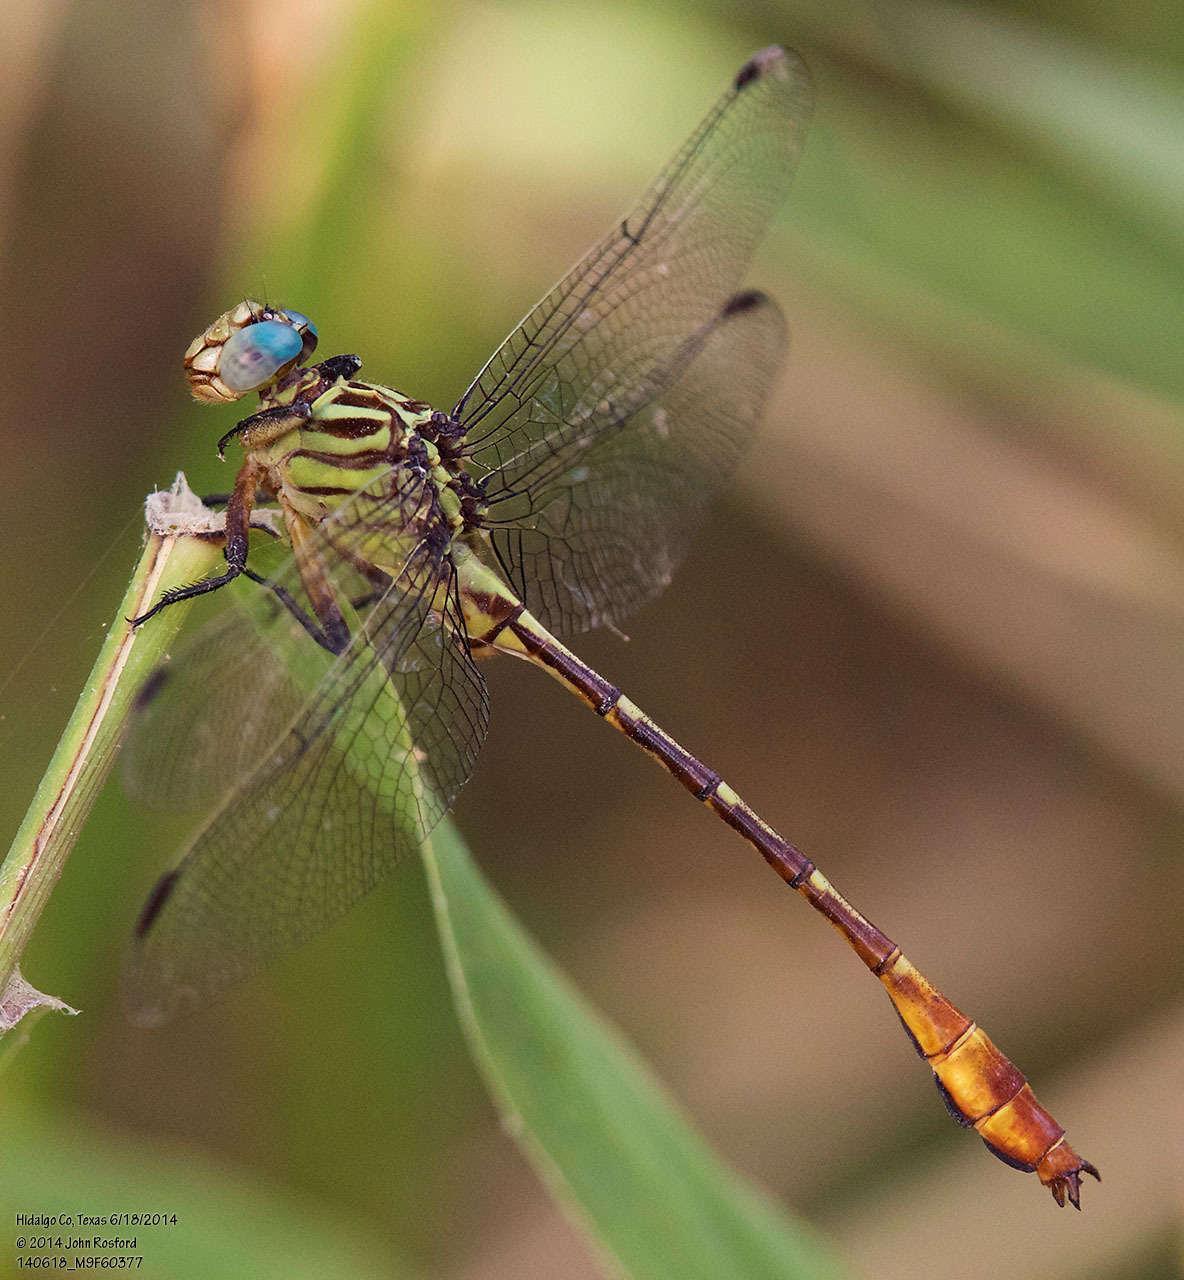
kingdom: Animalia
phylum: Arthropoda
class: Insecta
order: Odonata
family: Gomphidae
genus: Stylurus
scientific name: Stylurus plagiatus
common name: Russet-tipped clubtail
